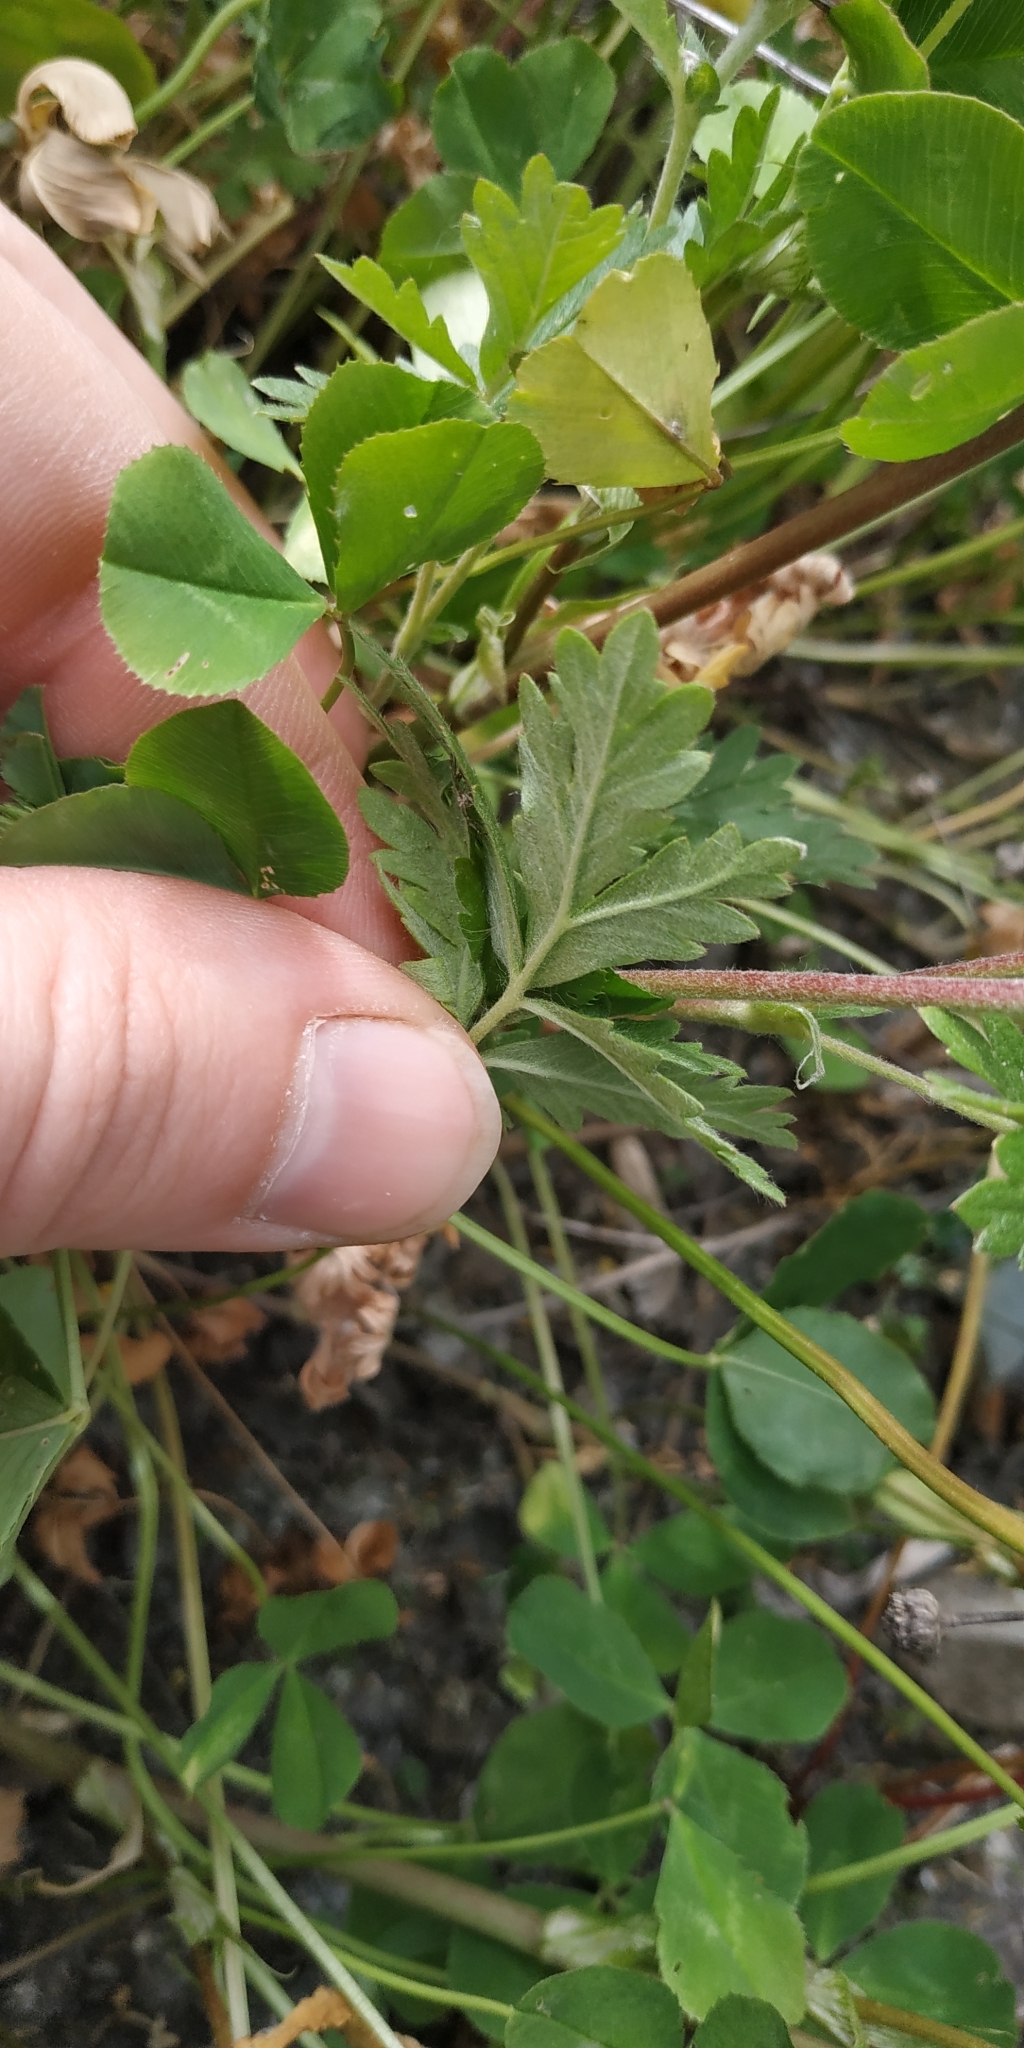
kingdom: Plantae
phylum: Tracheophyta
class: Magnoliopsida
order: Rosales
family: Rosaceae
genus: Potentilla
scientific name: Potentilla tobolensis
